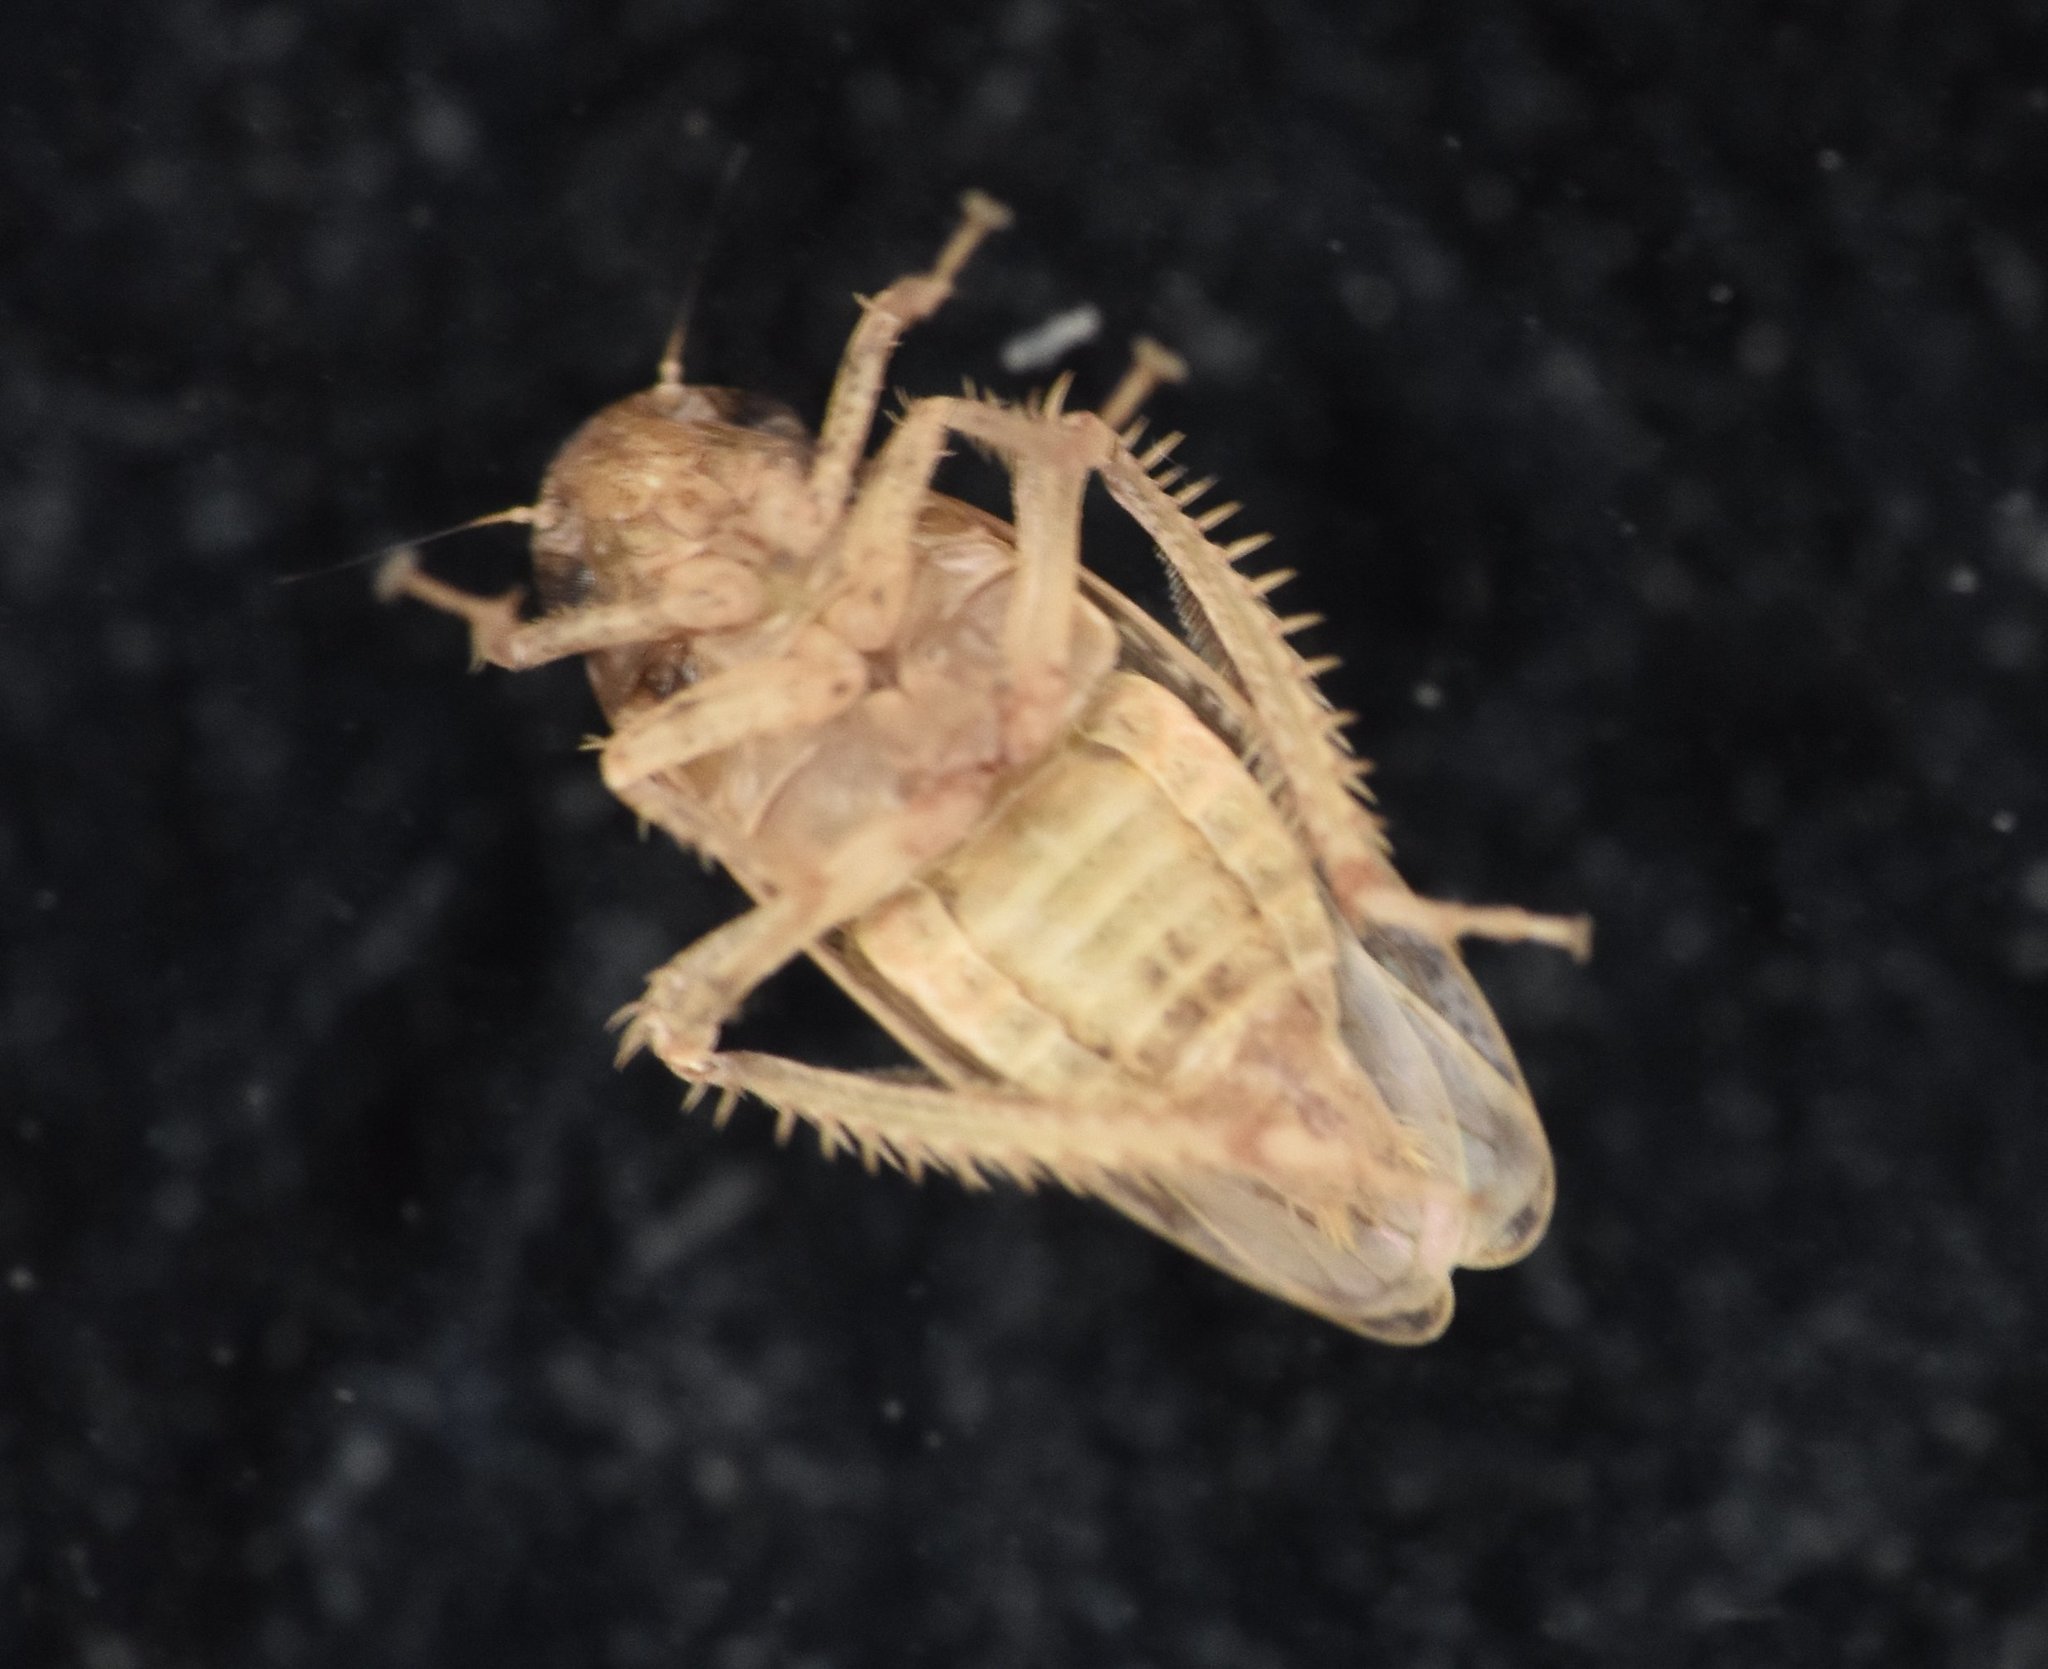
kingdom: Animalia
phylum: Arthropoda
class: Insecta
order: Hemiptera
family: Cicadellidae
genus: Curtara
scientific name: Curtara insularis
